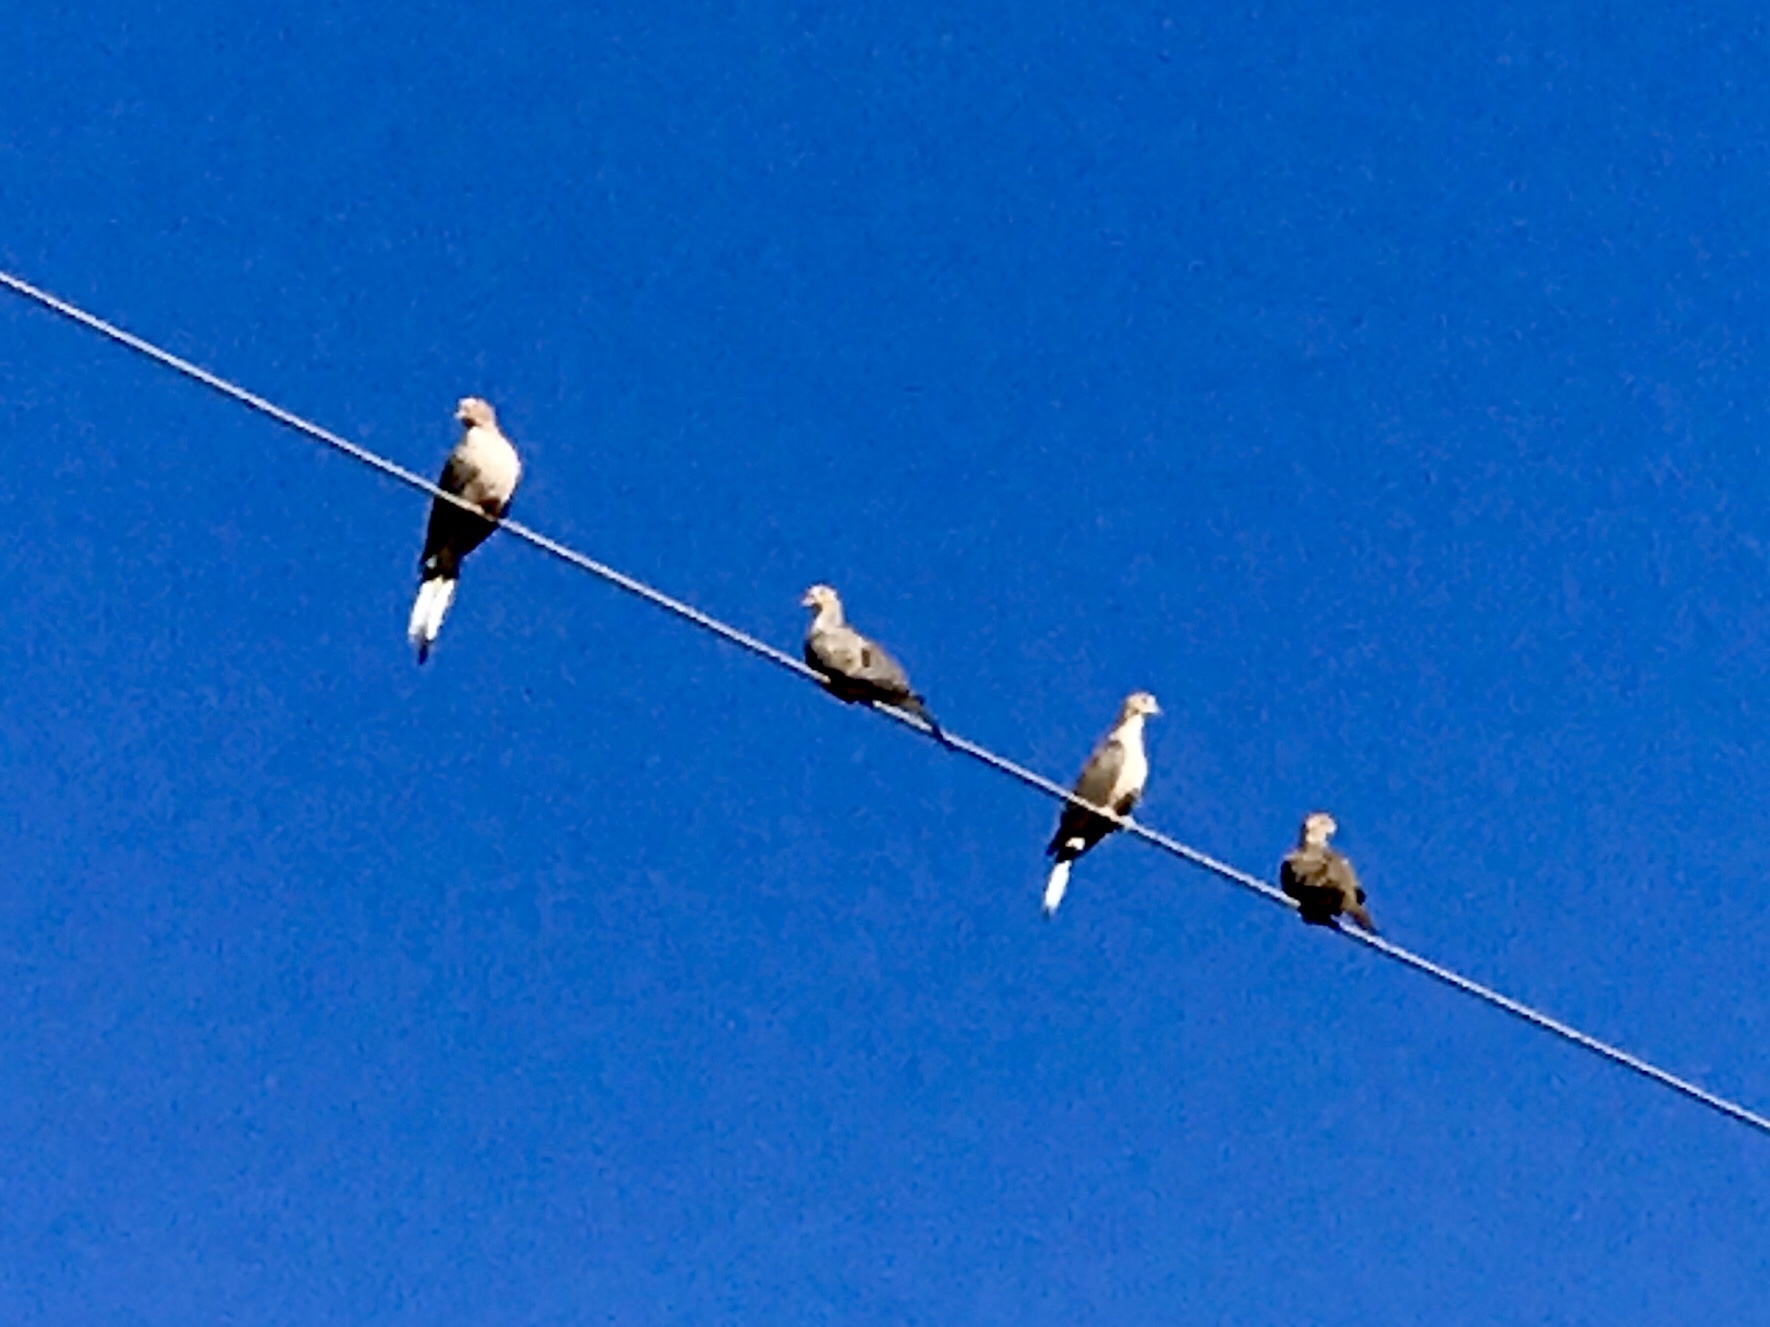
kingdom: Animalia
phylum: Chordata
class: Aves
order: Columbiformes
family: Columbidae
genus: Zenaida
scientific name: Zenaida macroura
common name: Mourning dove
